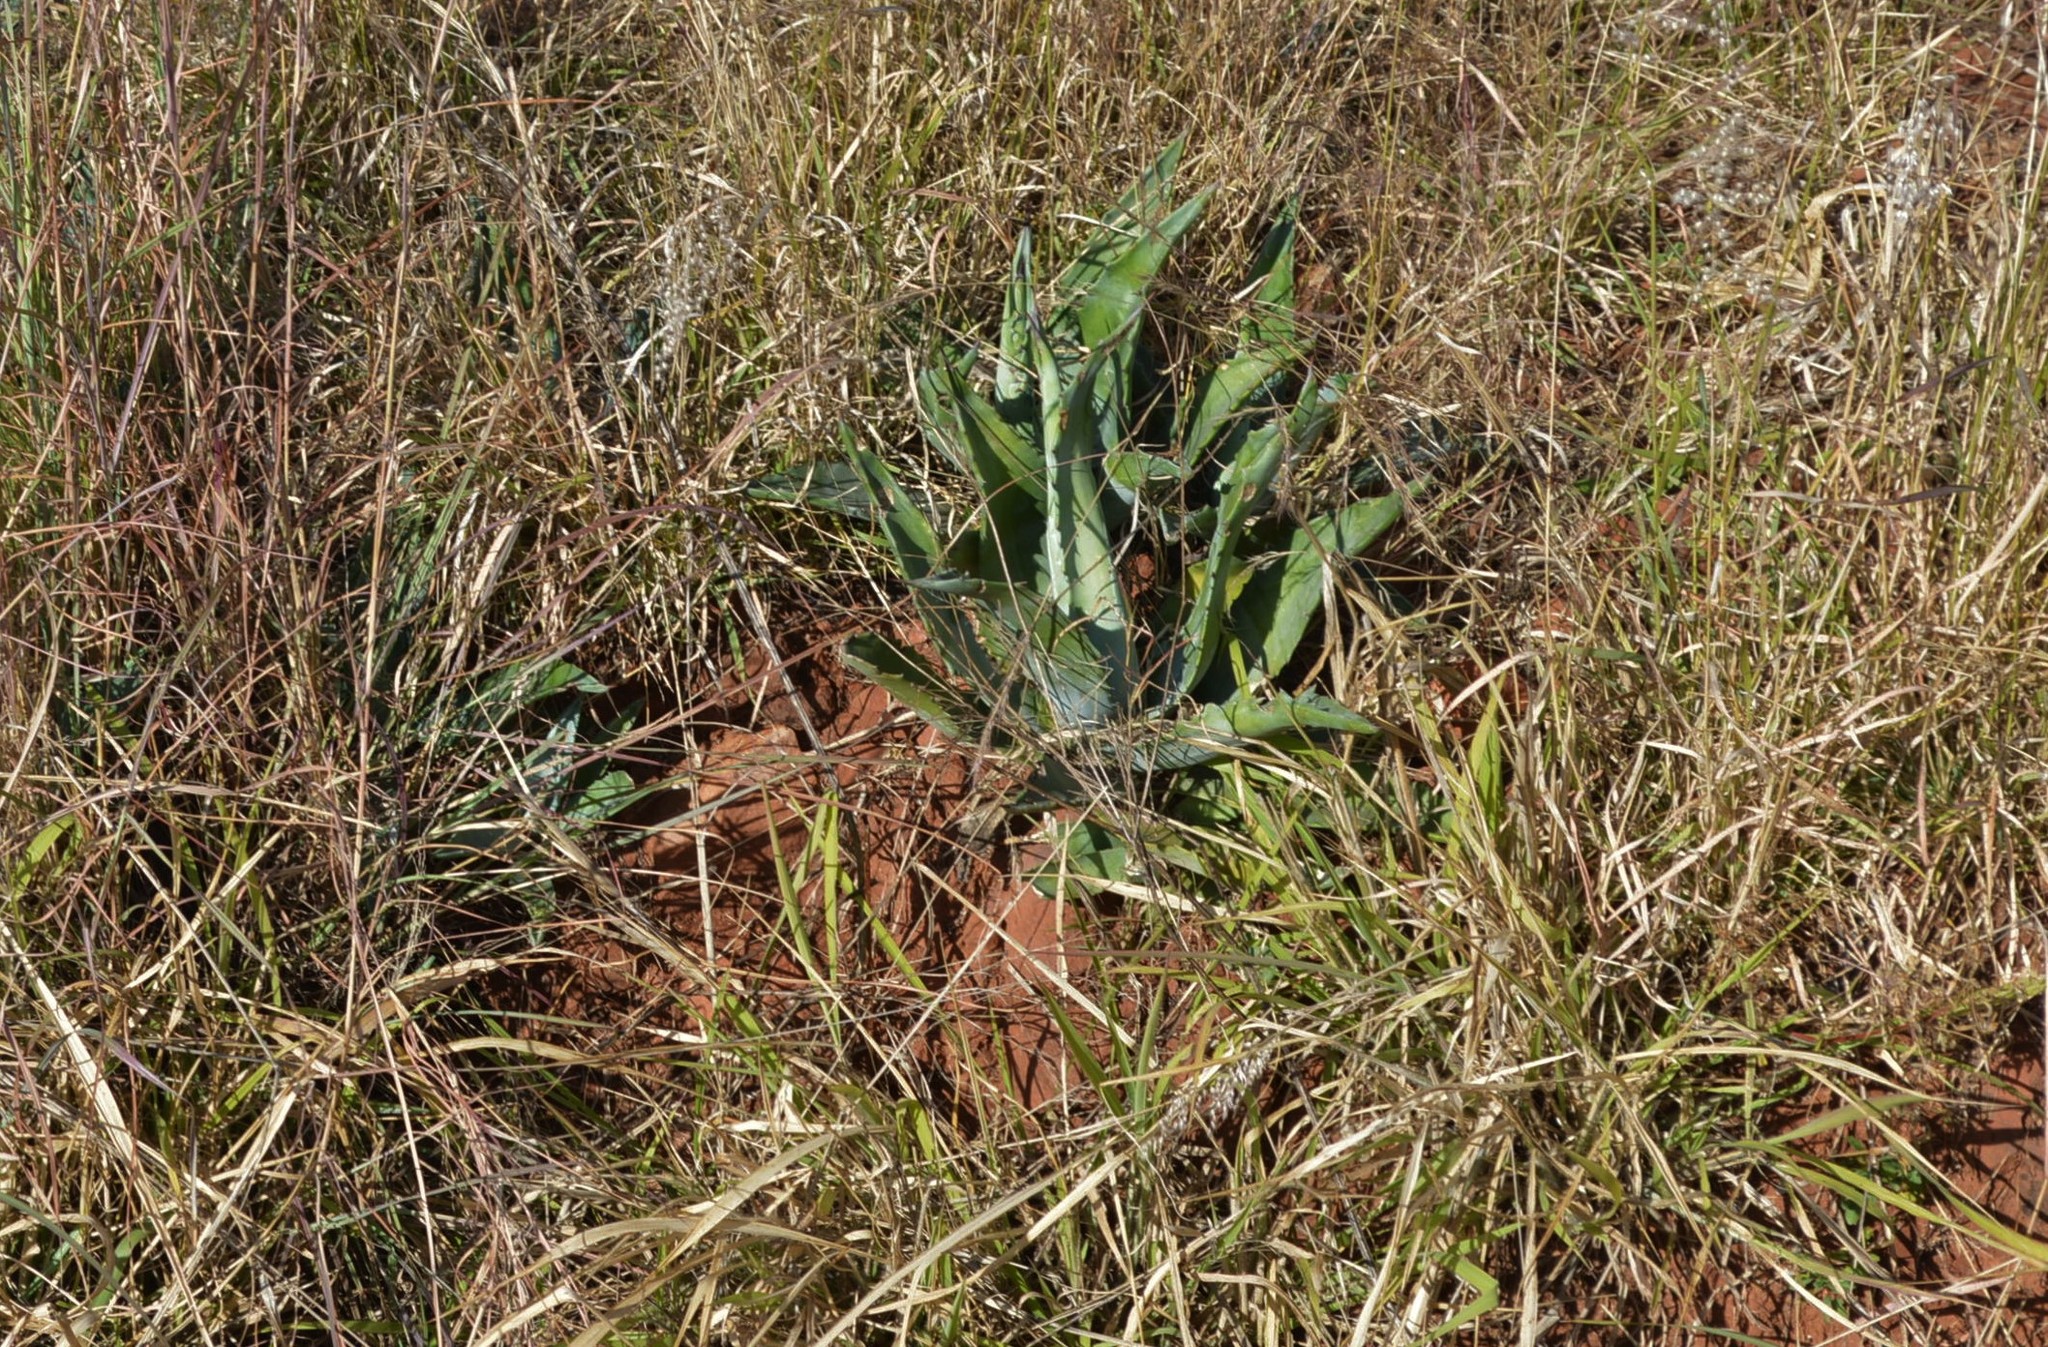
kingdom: Plantae
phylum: Tracheophyta
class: Liliopsida
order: Asparagales
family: Asparagaceae
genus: Agave
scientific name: Agave americana
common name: Centuryplant
